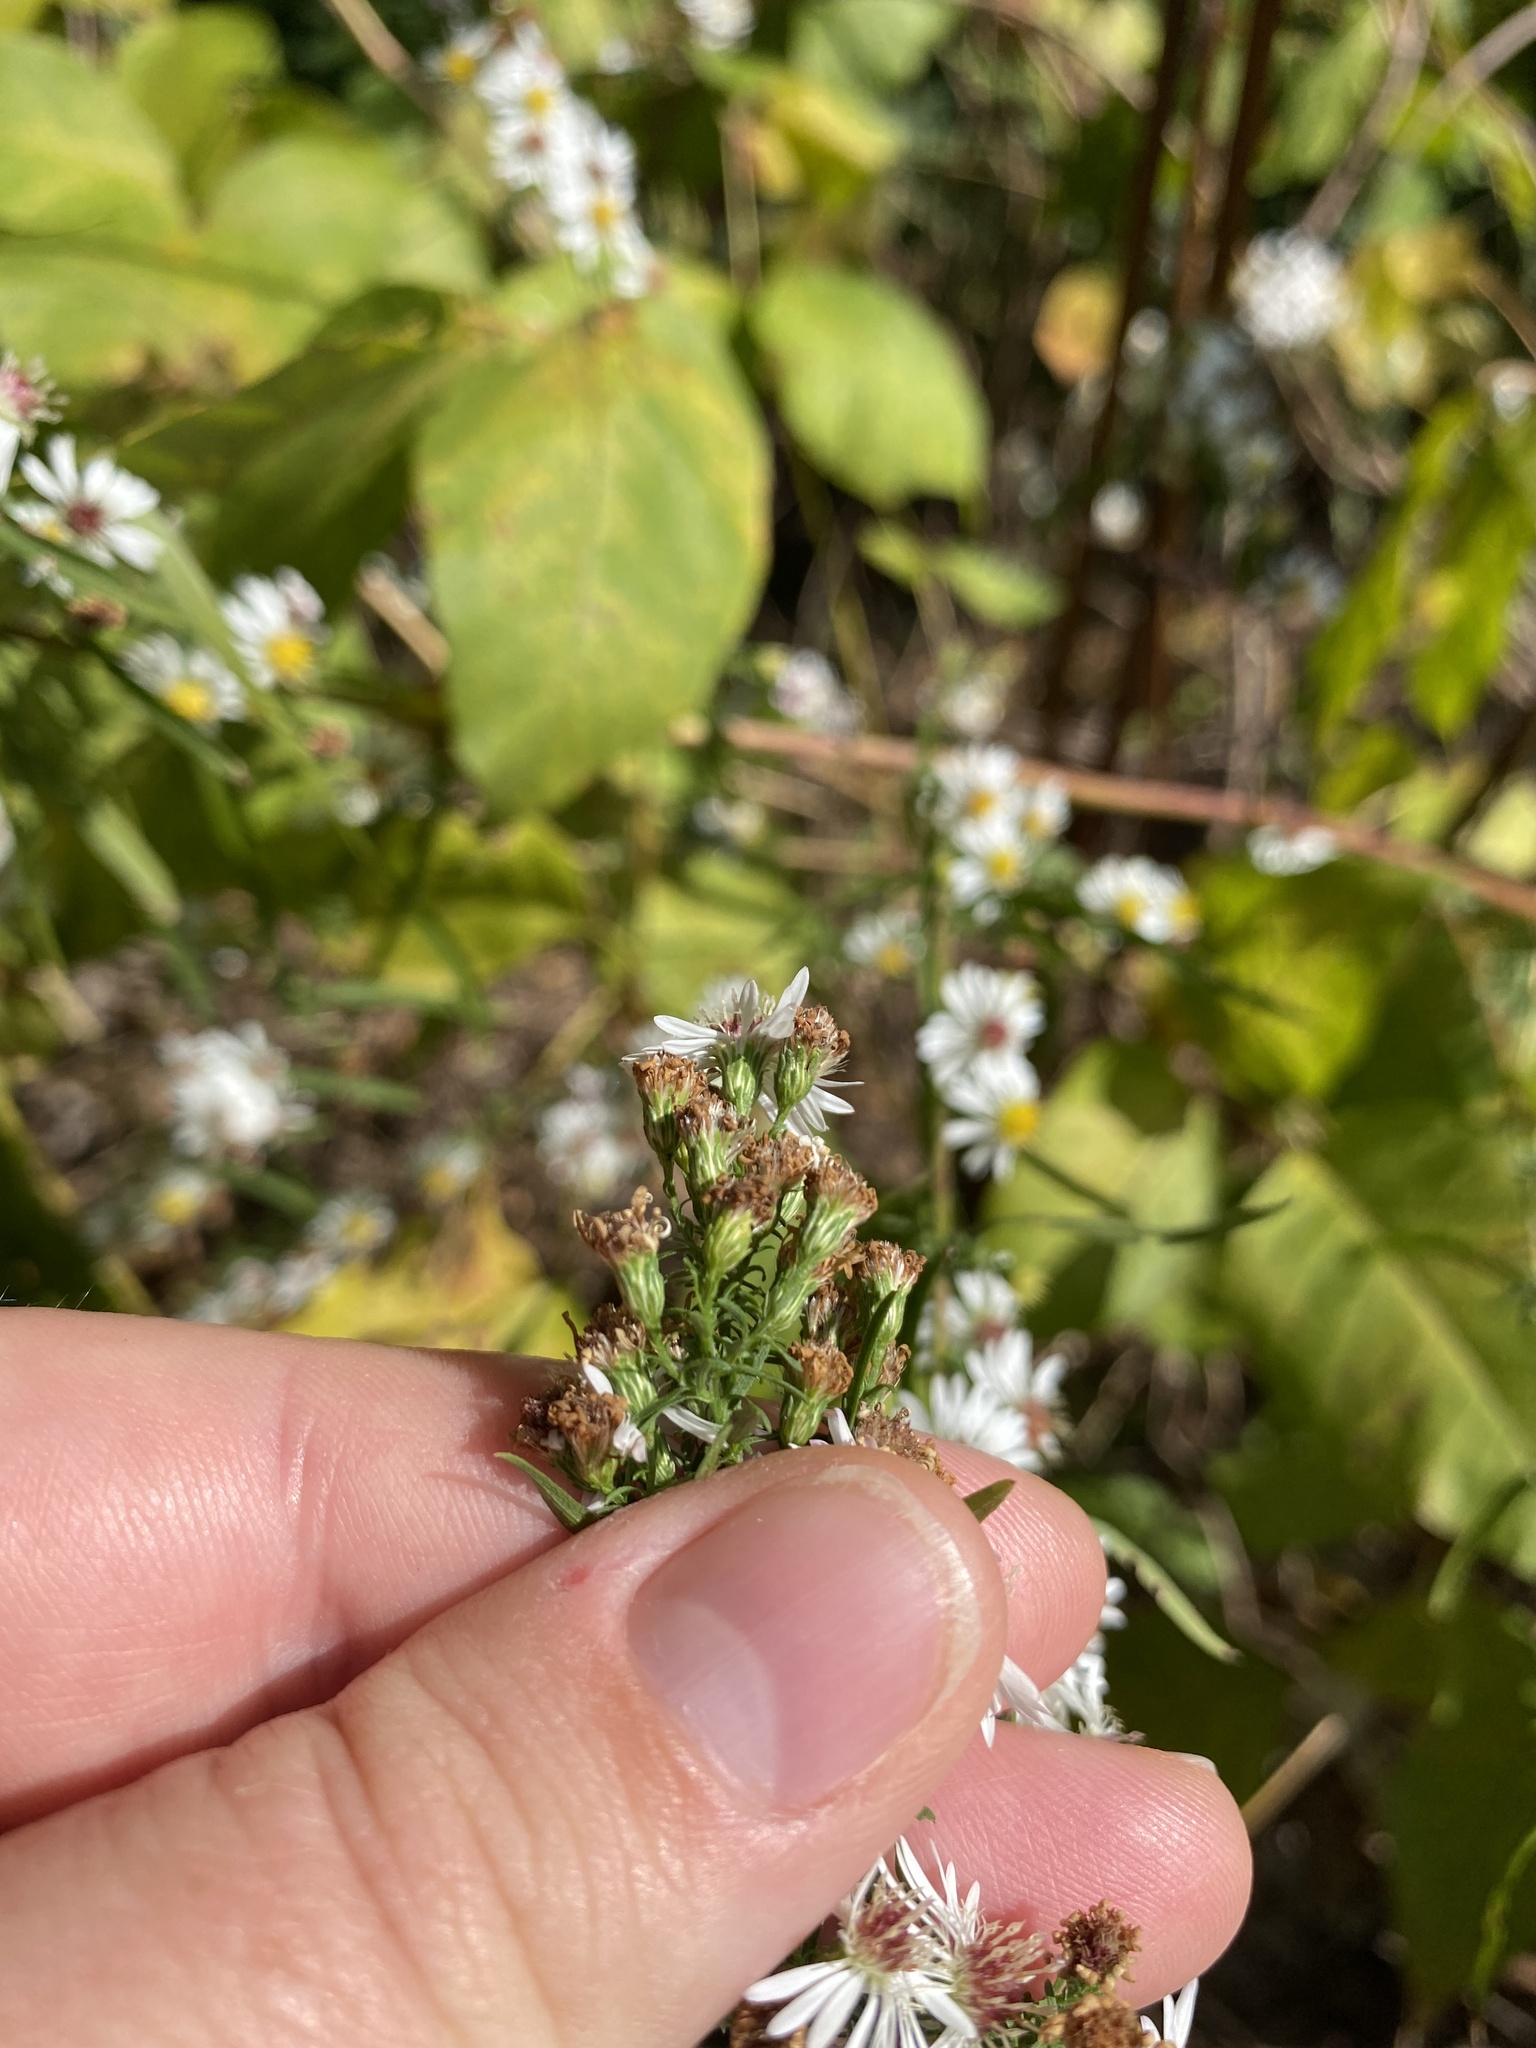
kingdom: Plantae
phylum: Tracheophyta
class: Magnoliopsida
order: Asterales
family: Asteraceae
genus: Symphyotrichum
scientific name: Symphyotrichum racemosum
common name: Small white aster
